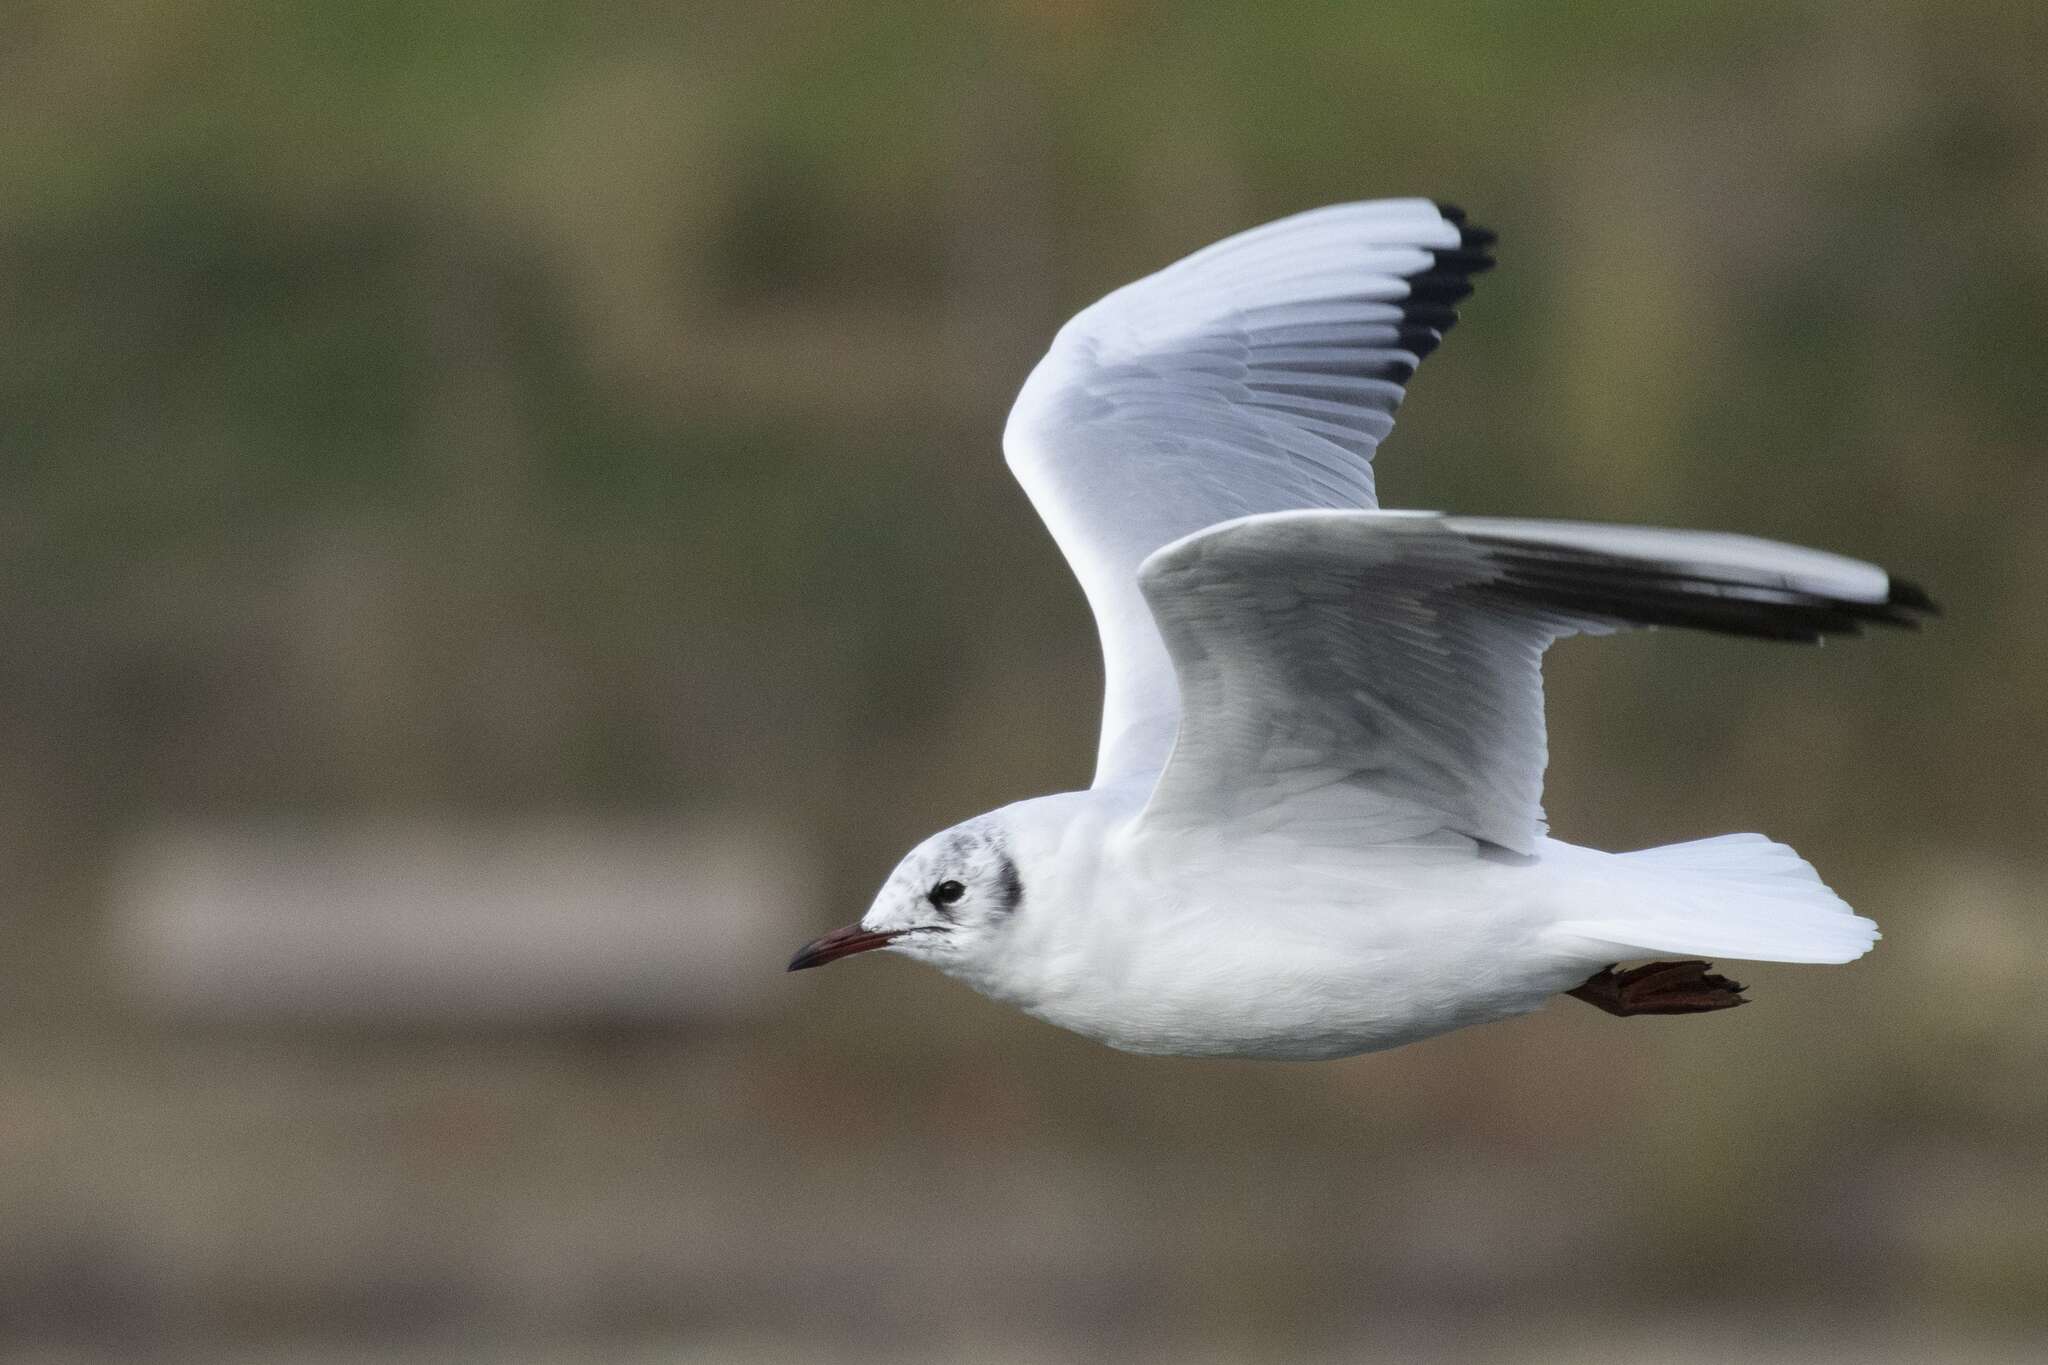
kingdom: Animalia
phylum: Chordata
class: Aves
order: Charadriiformes
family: Laridae
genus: Chroicocephalus
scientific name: Chroicocephalus ridibundus
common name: Black-headed gull
